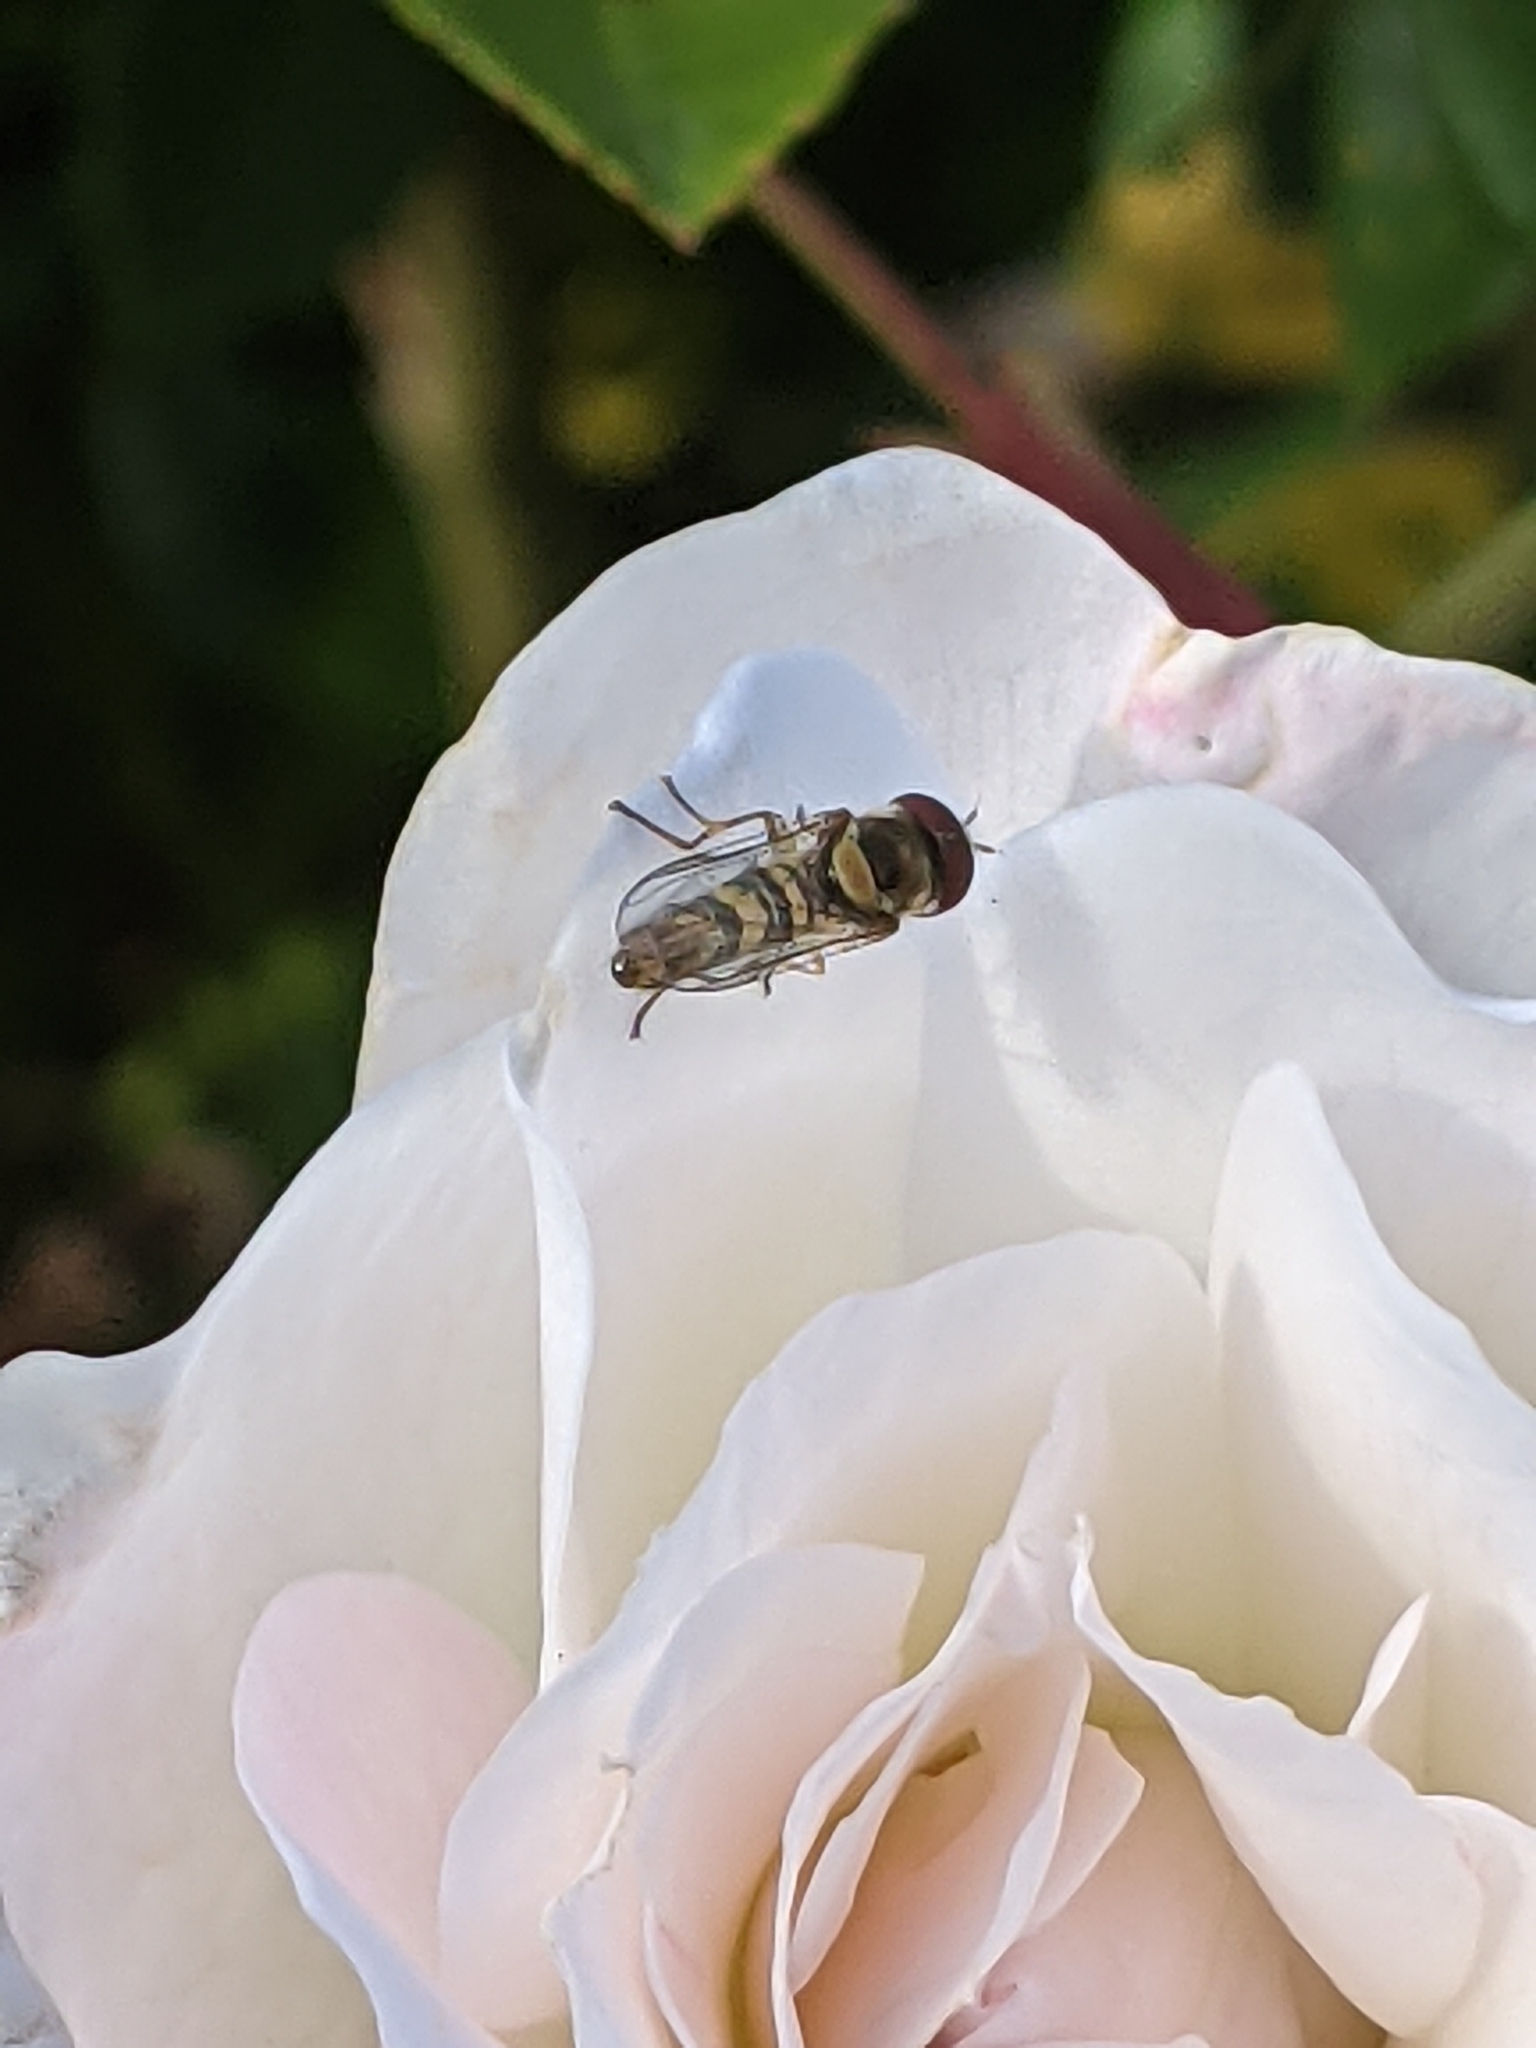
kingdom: Animalia
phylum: Arthropoda
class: Insecta
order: Diptera
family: Syrphidae
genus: Allograpta
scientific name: Allograpta obliqua
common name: Common oblique syrphid
